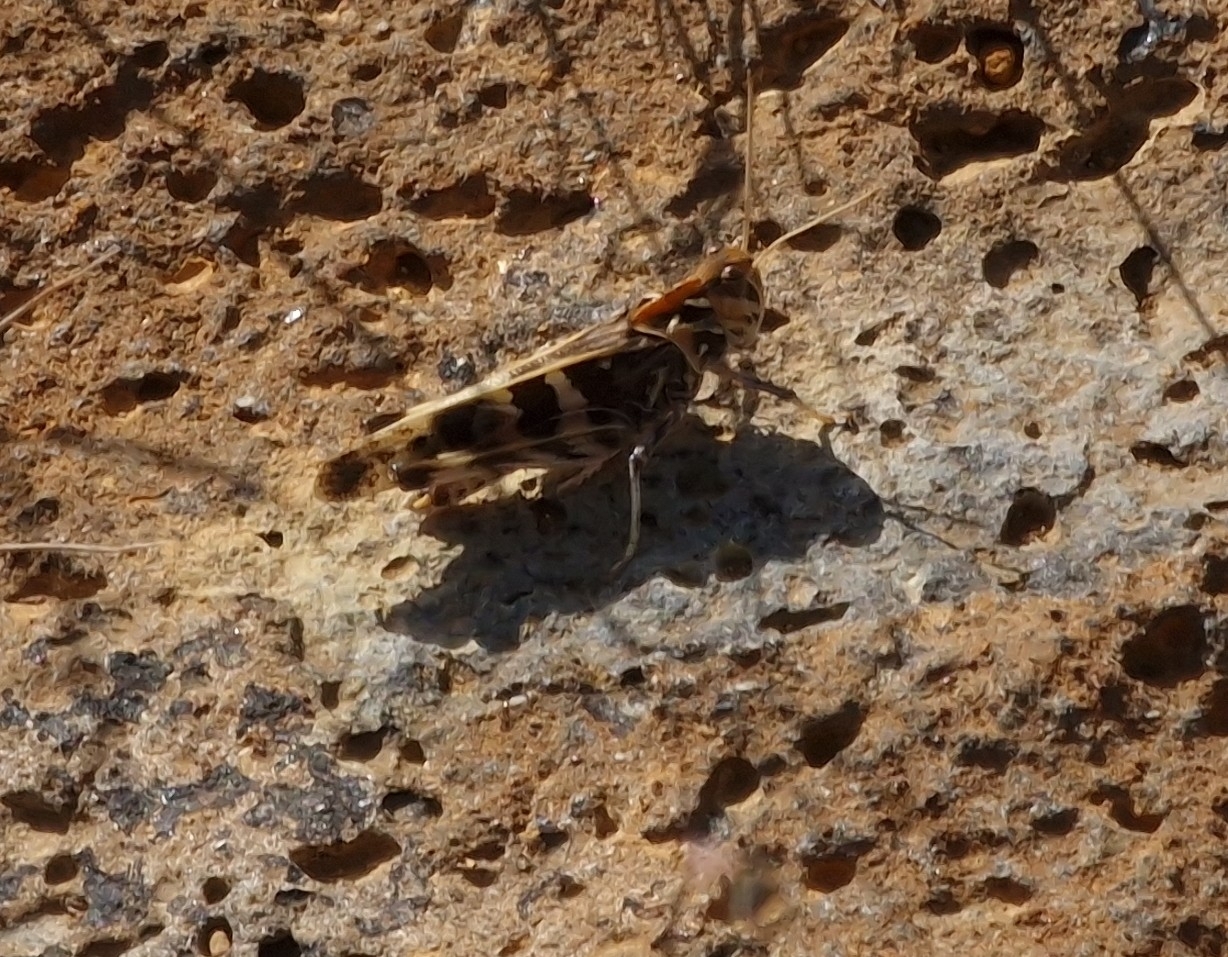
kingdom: Animalia
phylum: Arthropoda
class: Insecta
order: Orthoptera
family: Acrididae
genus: Oedaleus
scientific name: Oedaleus decorus
